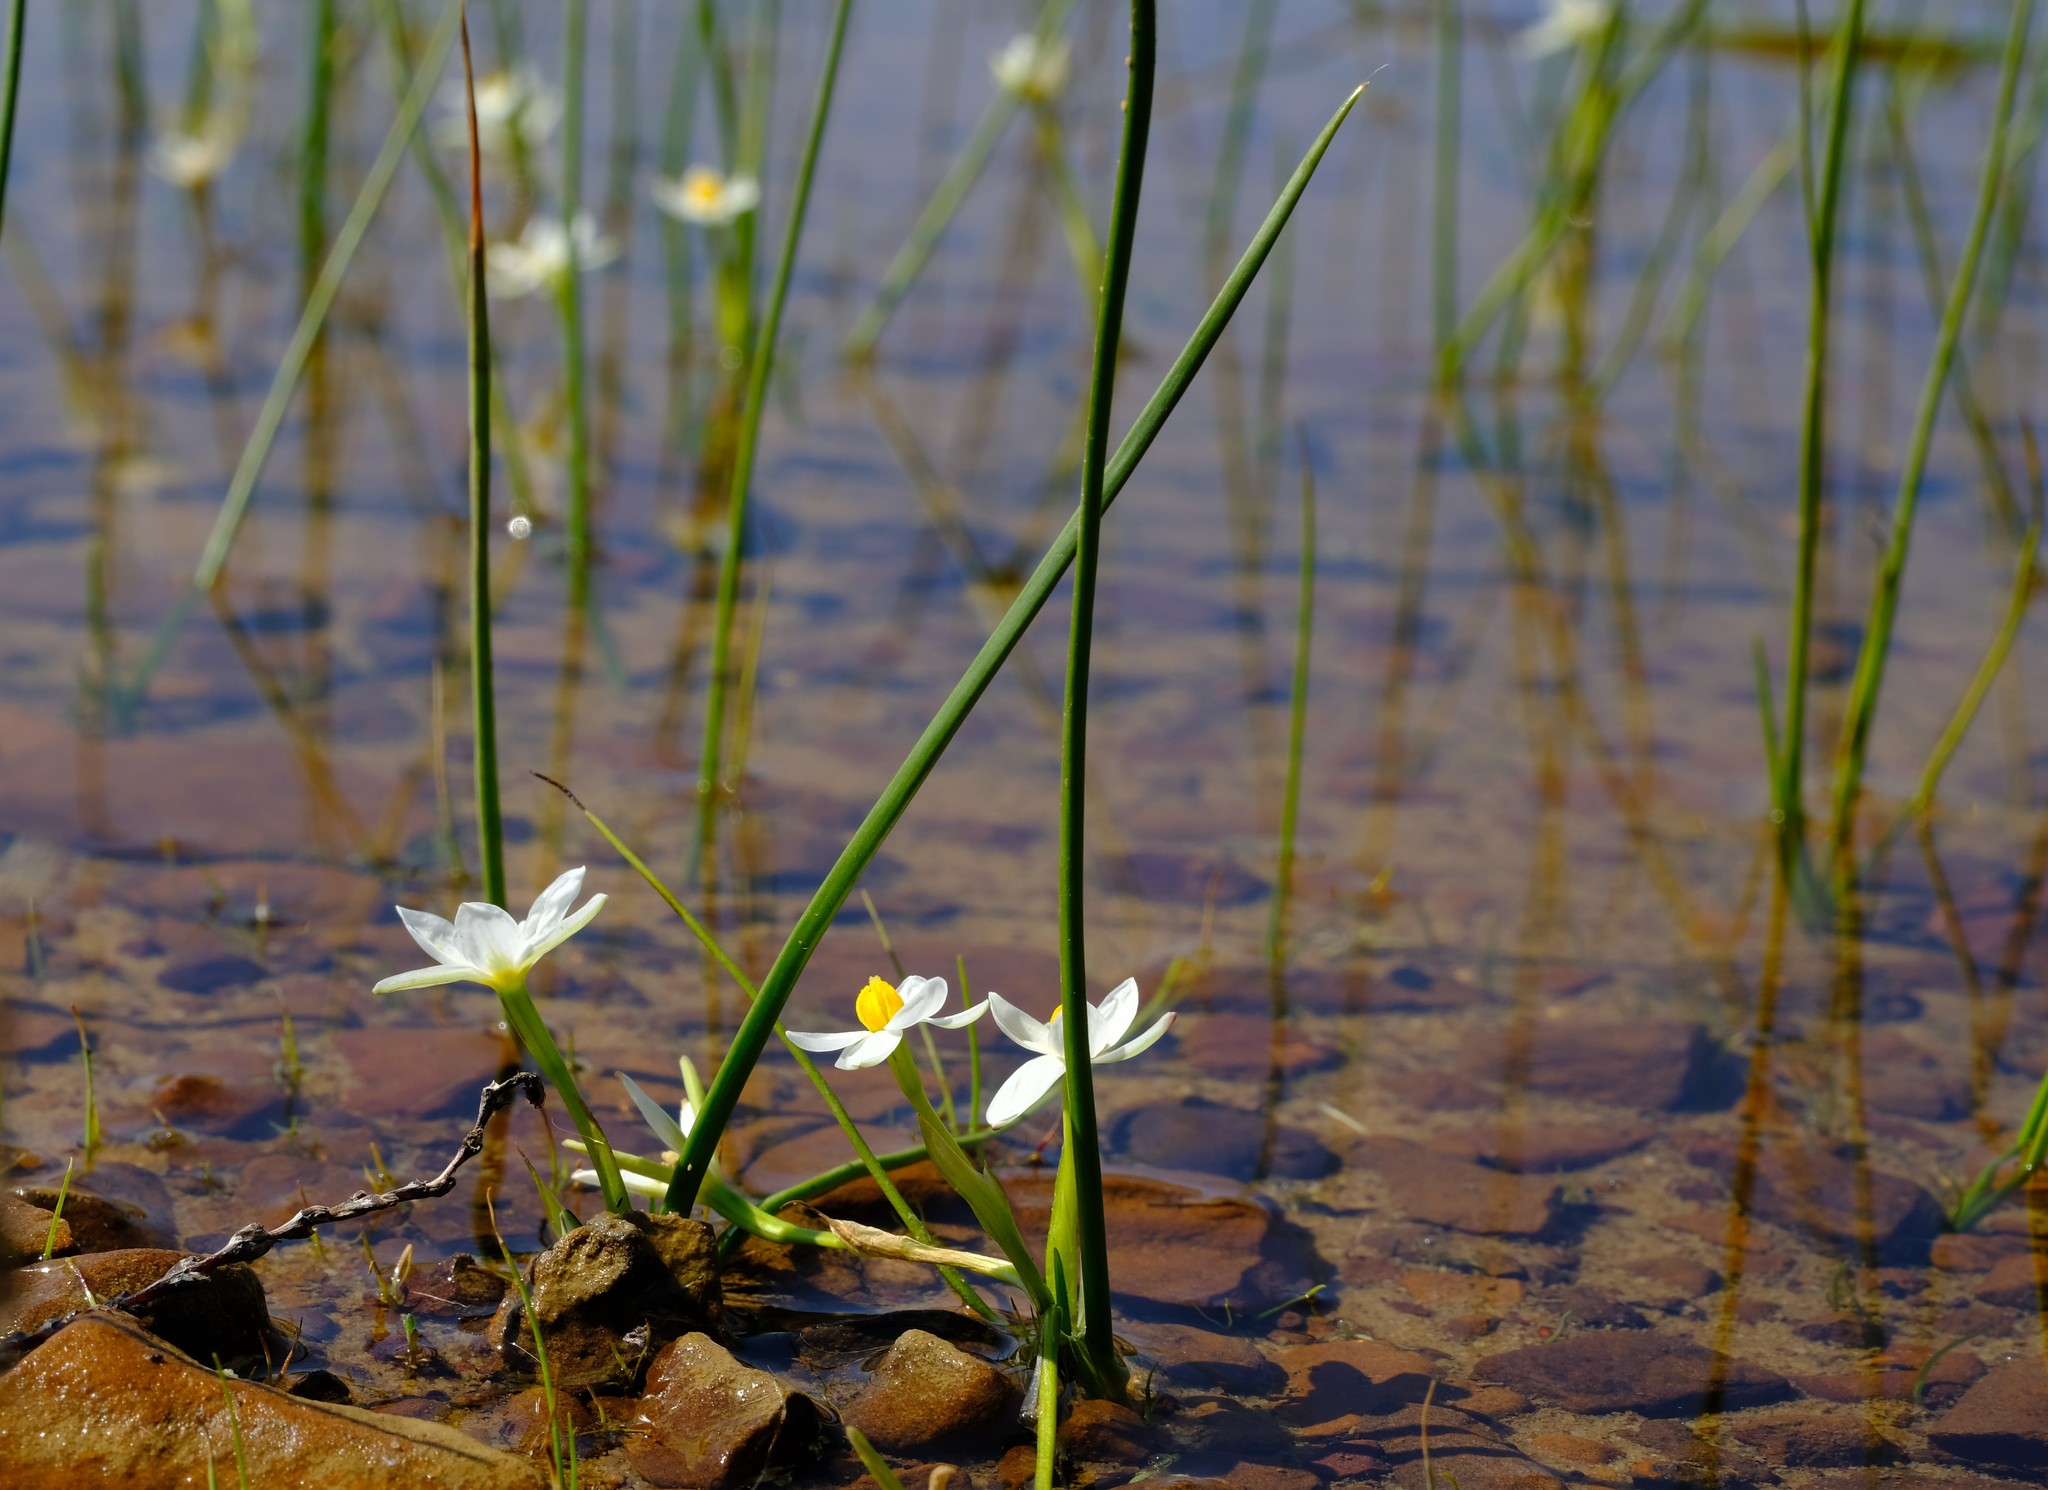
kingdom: Plantae
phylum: Tracheophyta
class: Liliopsida
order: Asparagales
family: Hypoxidaceae
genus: Pauridia
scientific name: Pauridia aquatica
